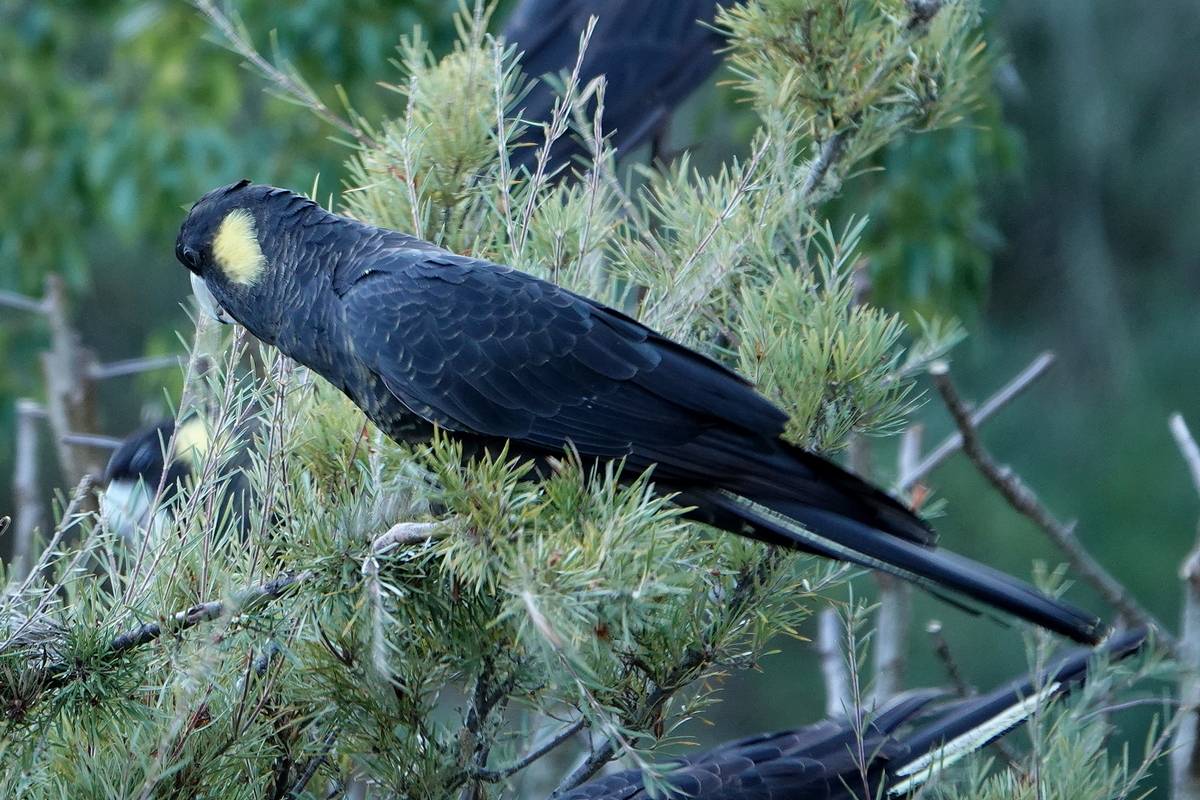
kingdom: Animalia
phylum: Chordata
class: Aves
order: Psittaciformes
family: Cacatuidae
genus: Zanda
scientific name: Zanda funerea
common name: Yellow-tailed black-cockatoo
